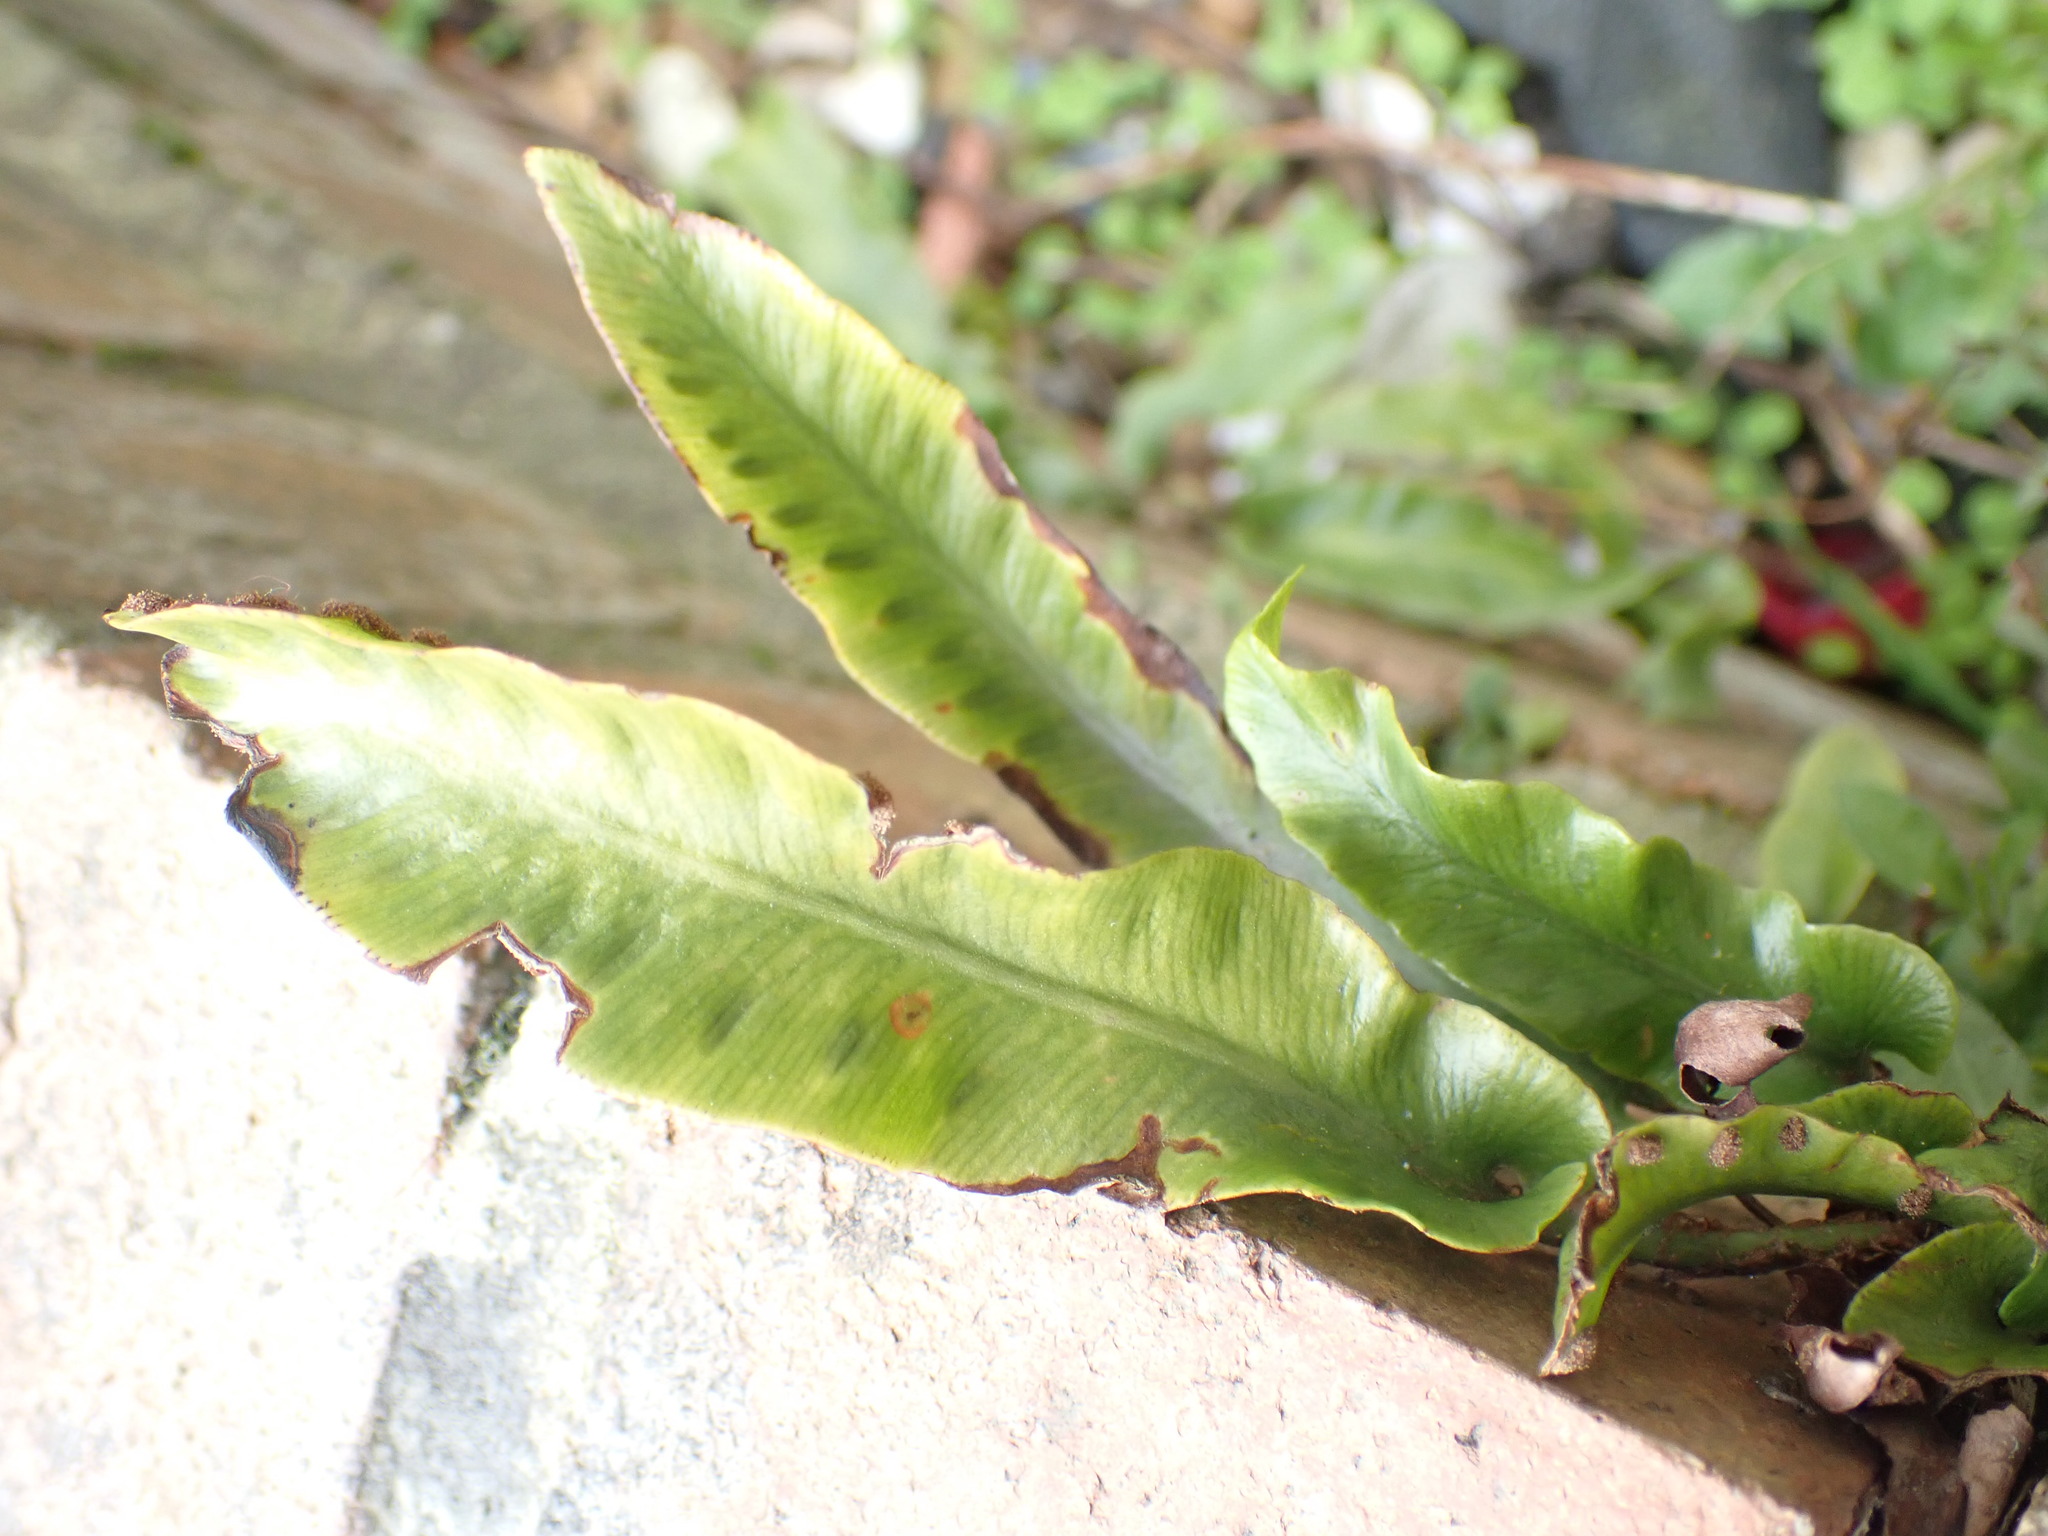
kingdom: Plantae
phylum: Tracheophyta
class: Polypodiopsida
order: Polypodiales
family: Aspleniaceae
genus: Asplenium
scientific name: Asplenium scolopendrium
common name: Hart's-tongue fern
